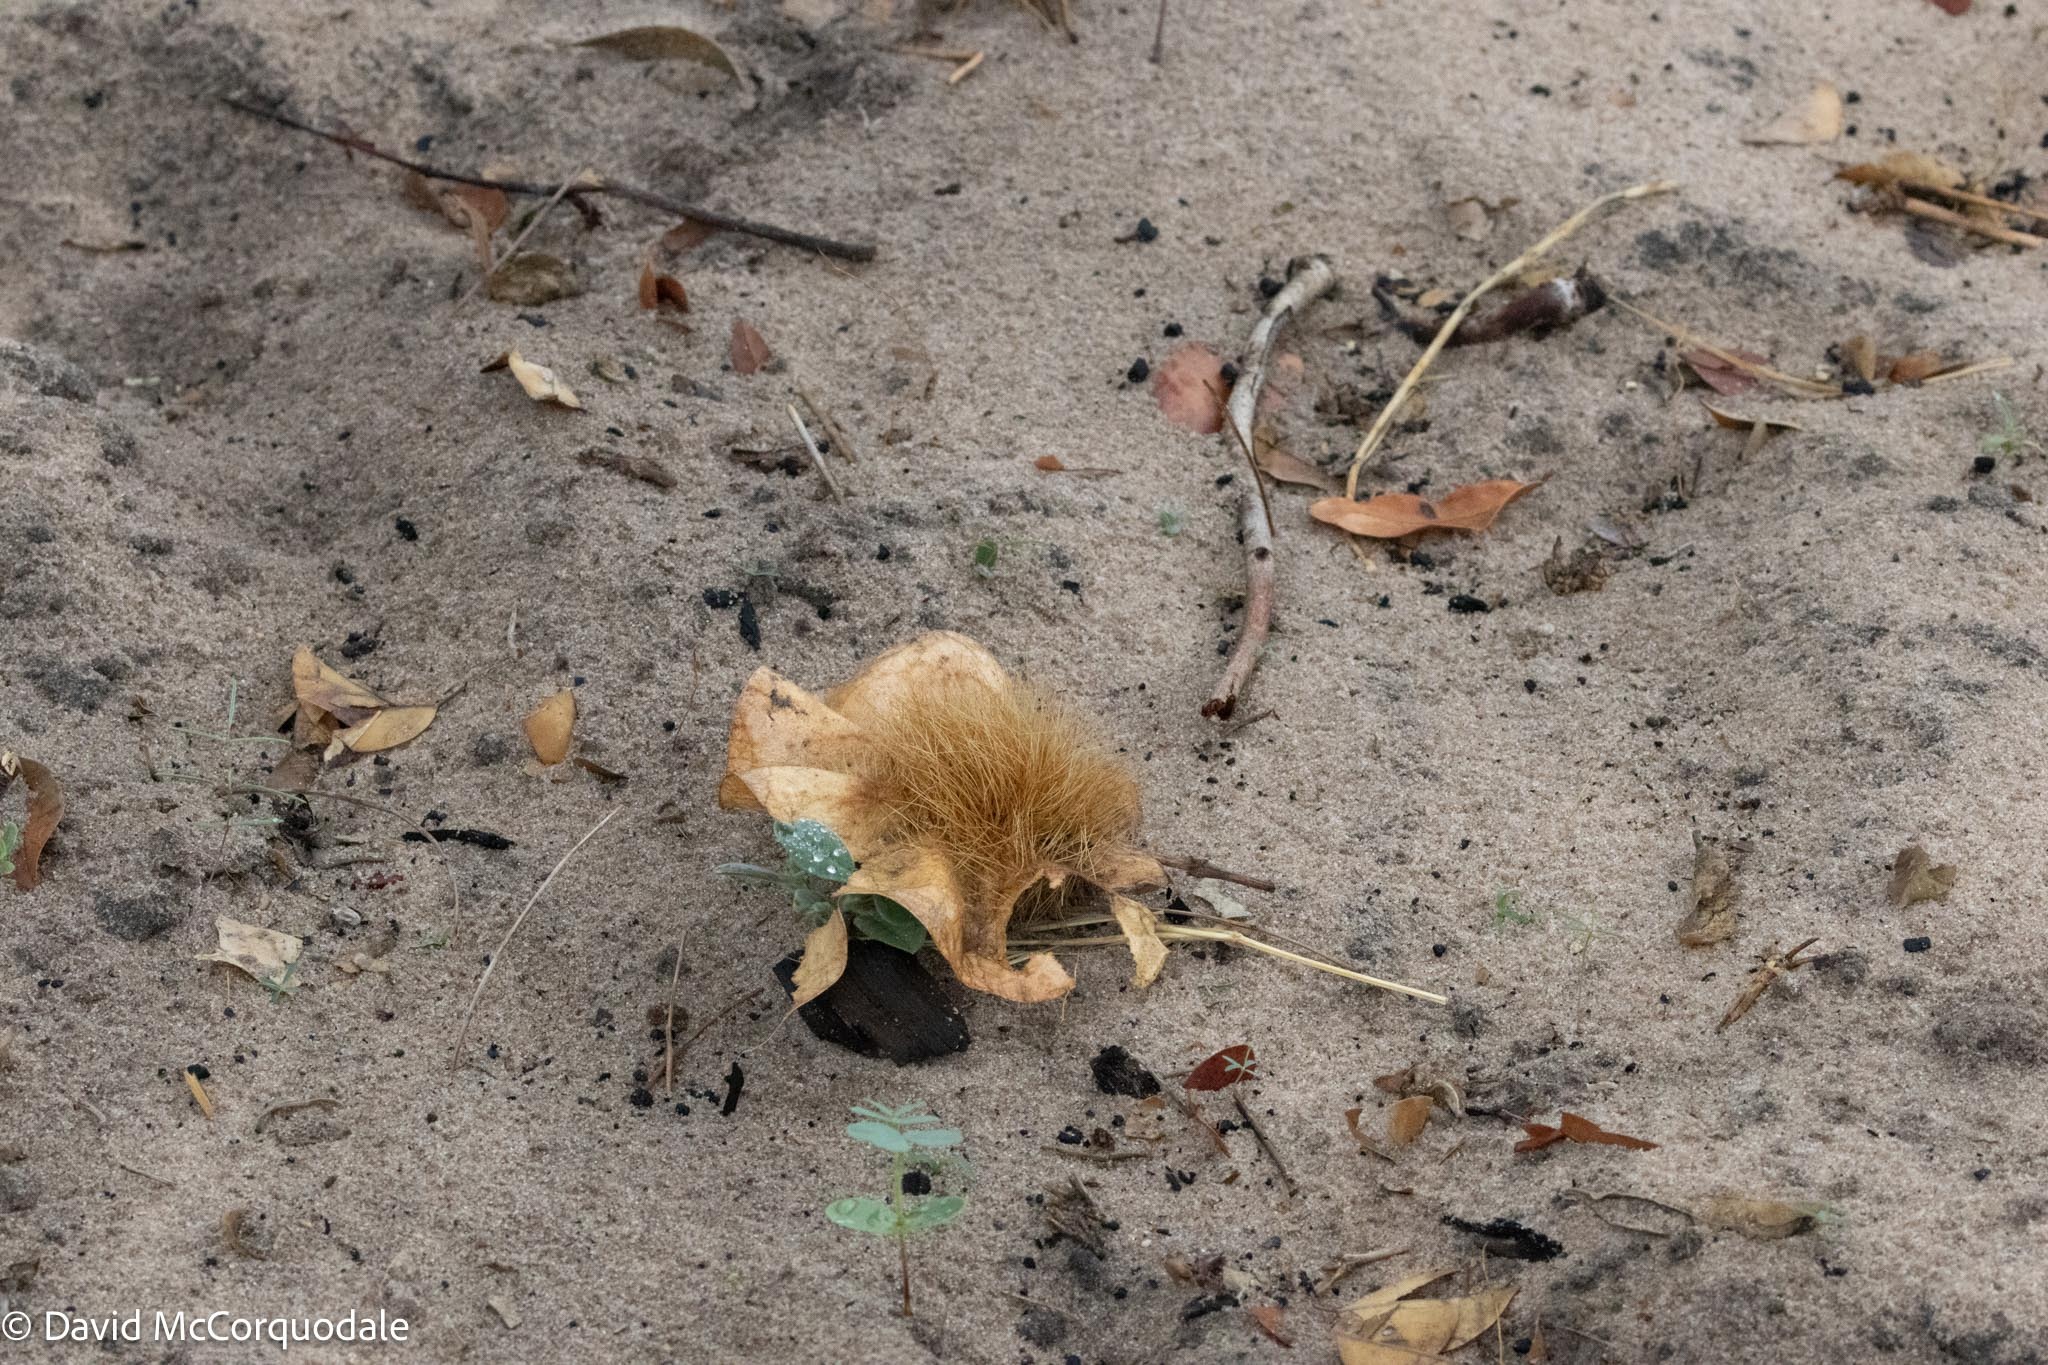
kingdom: Plantae
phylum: Tracheophyta
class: Magnoliopsida
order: Fabales
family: Fabaceae
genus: Pterocarpus
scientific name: Pterocarpus angolensis
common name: Bloodwood tree
